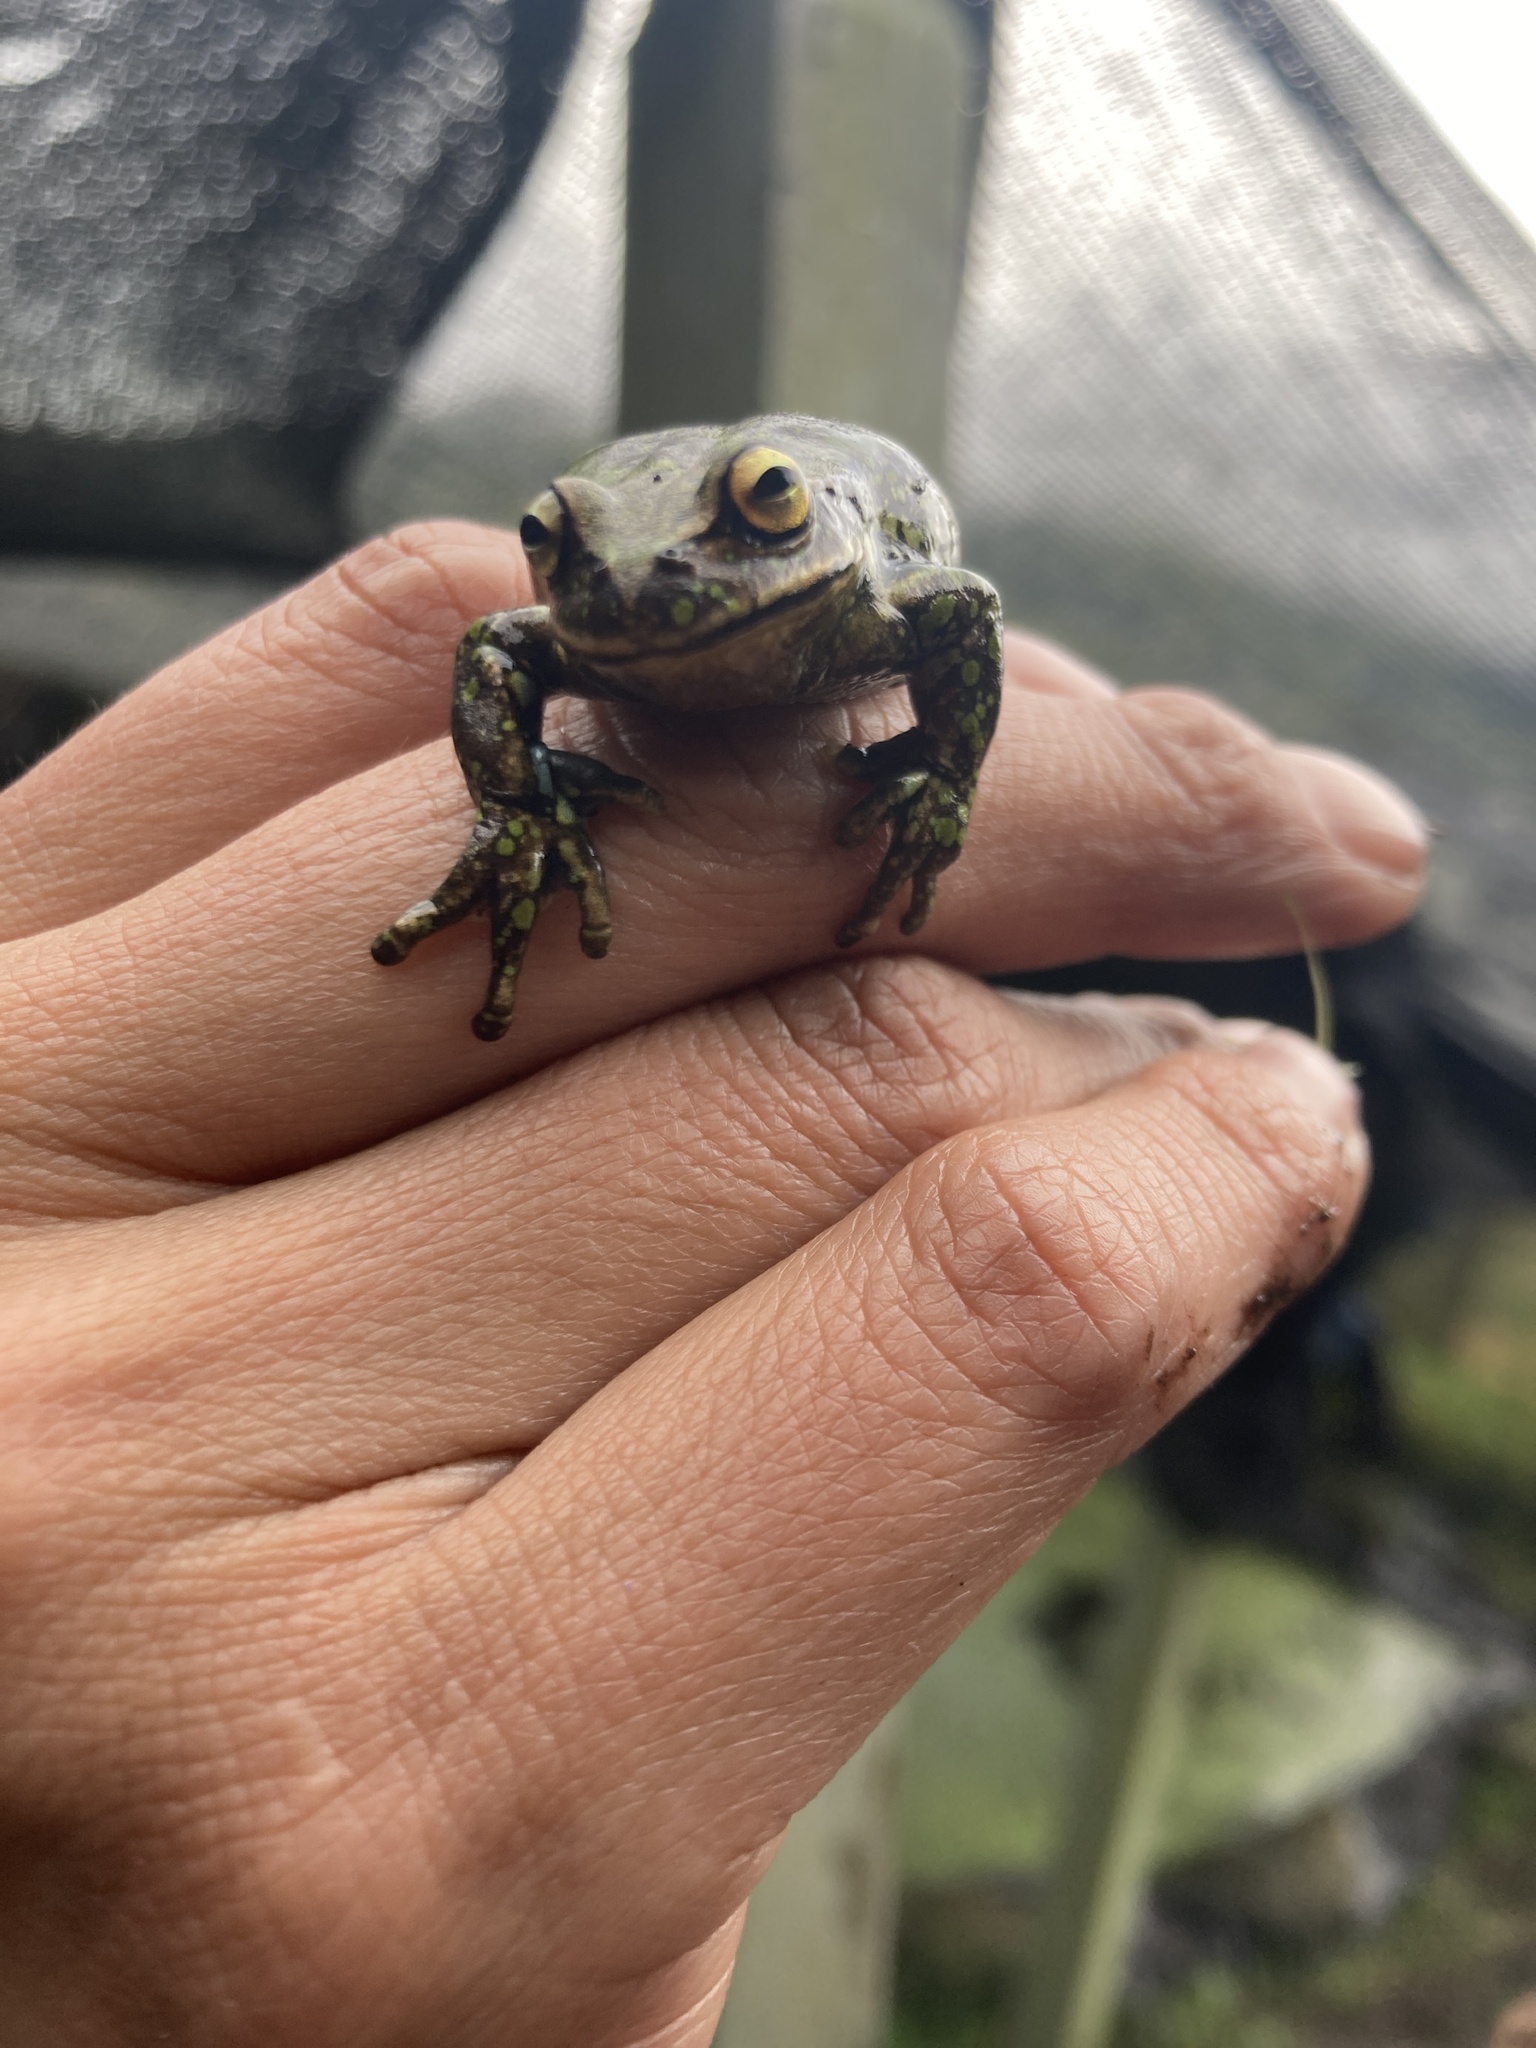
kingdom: Animalia
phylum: Chordata
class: Amphibia
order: Anura
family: Hylidae
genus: Dendropsophus
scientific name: Dendropsophus molitor
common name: Green dotted treefrog
